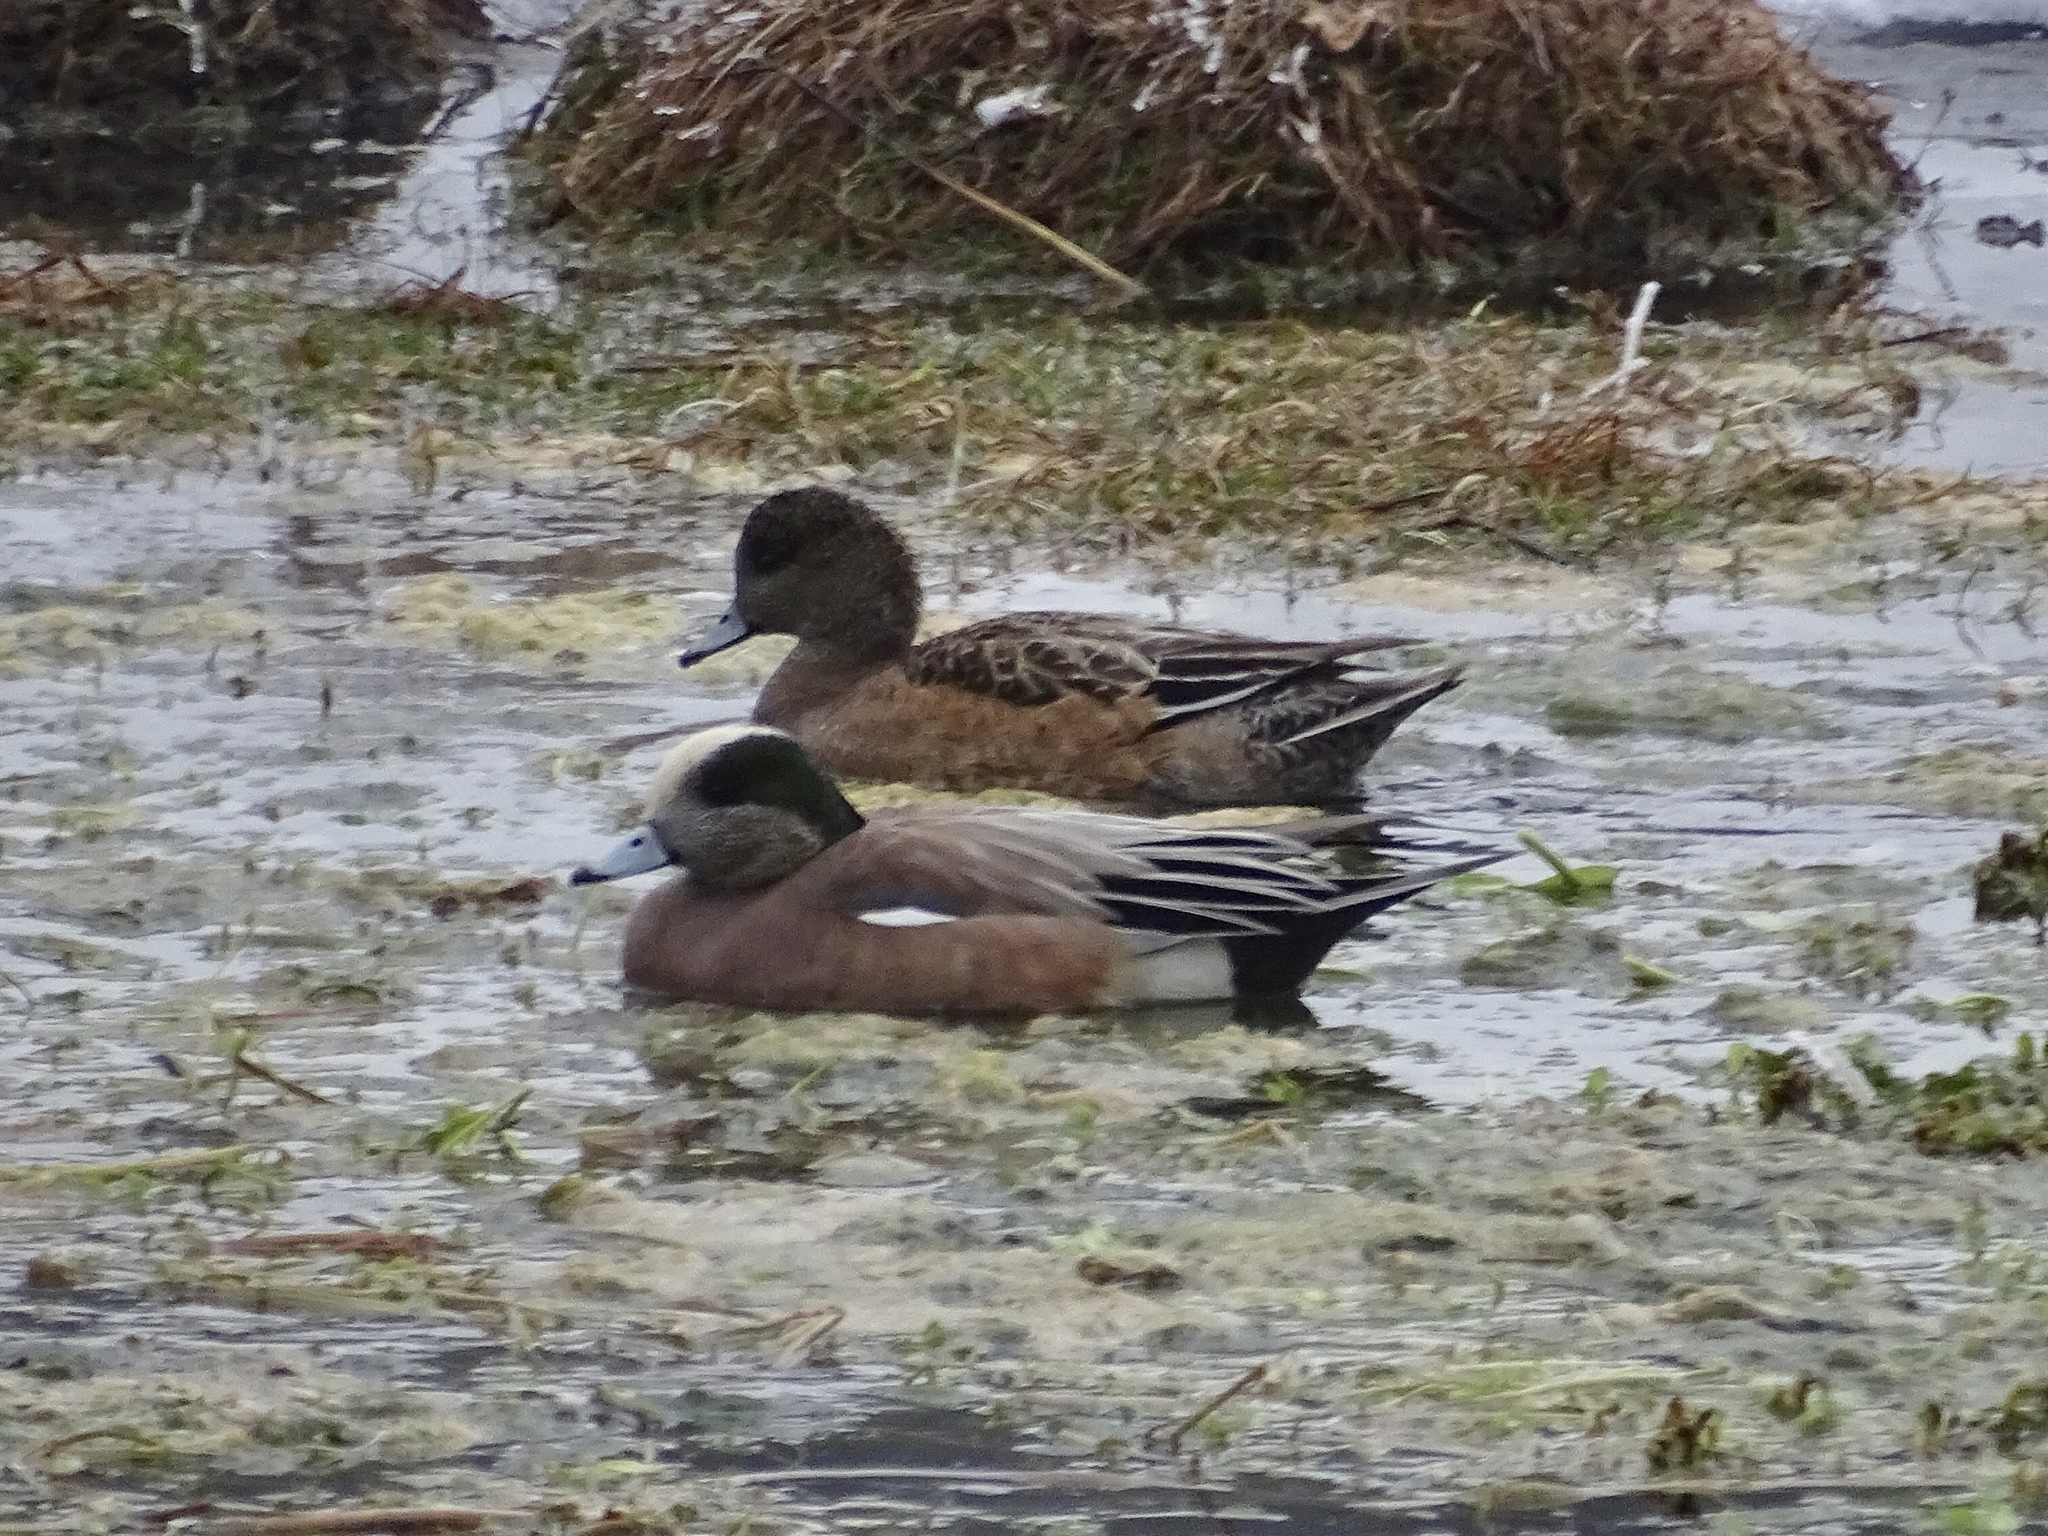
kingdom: Animalia
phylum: Chordata
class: Aves
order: Anseriformes
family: Anatidae
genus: Mareca
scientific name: Mareca americana
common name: American wigeon
